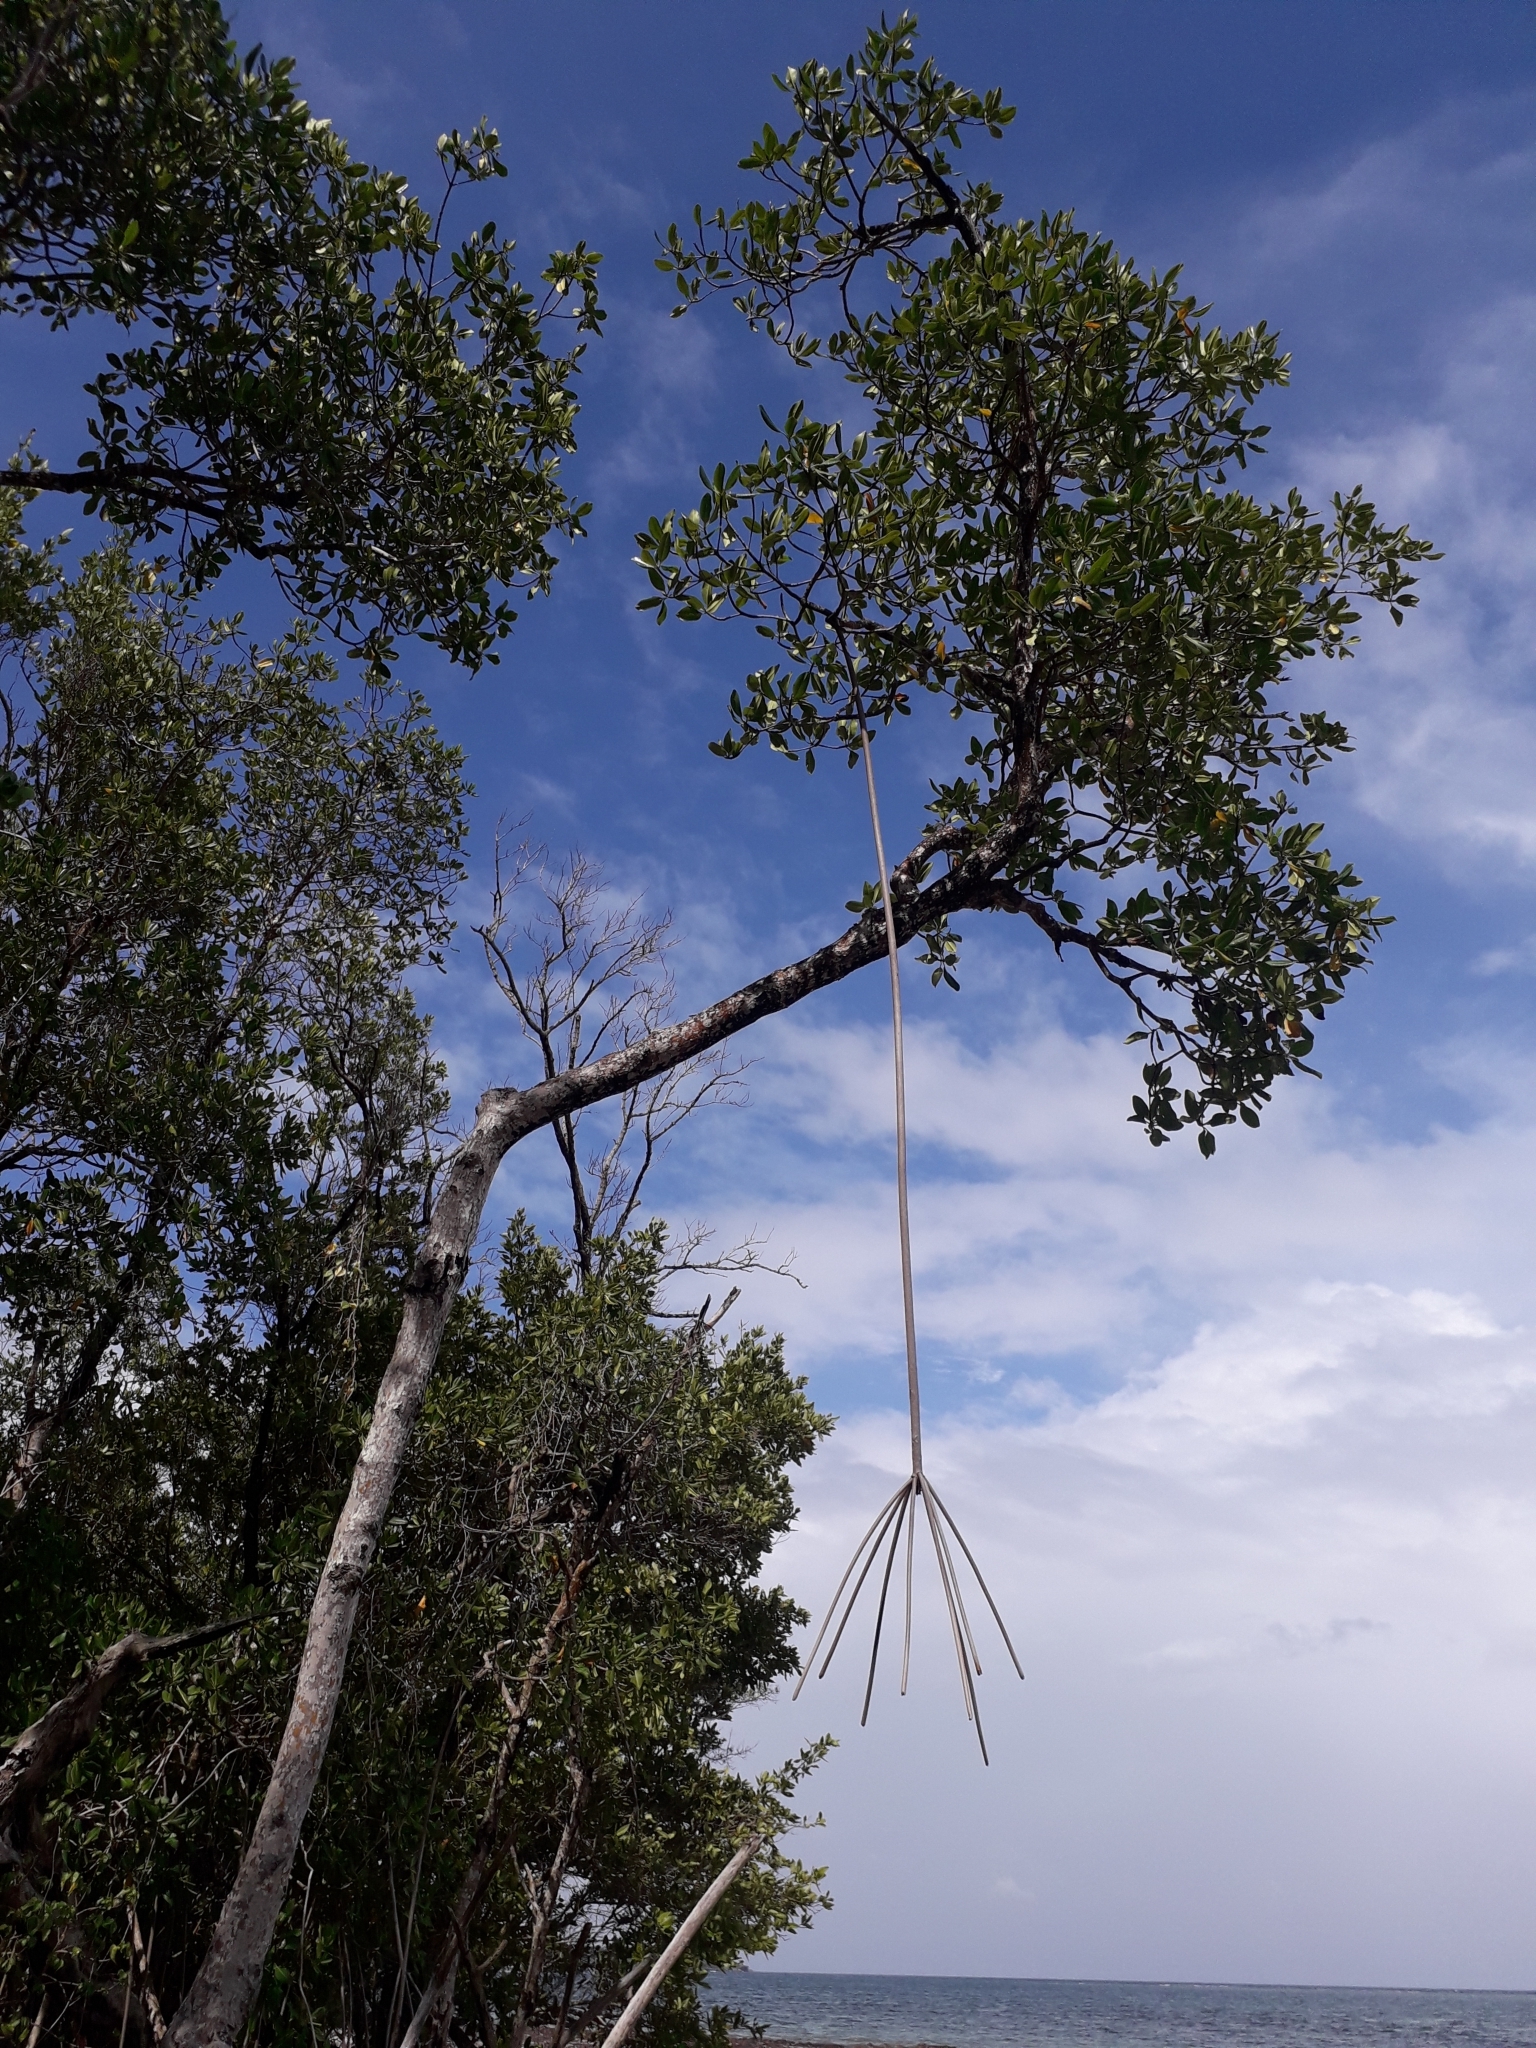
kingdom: Plantae
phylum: Tracheophyta
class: Magnoliopsida
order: Malpighiales
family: Rhizophoraceae
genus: Rhizophora
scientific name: Rhizophora mangle
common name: Red mangrove
